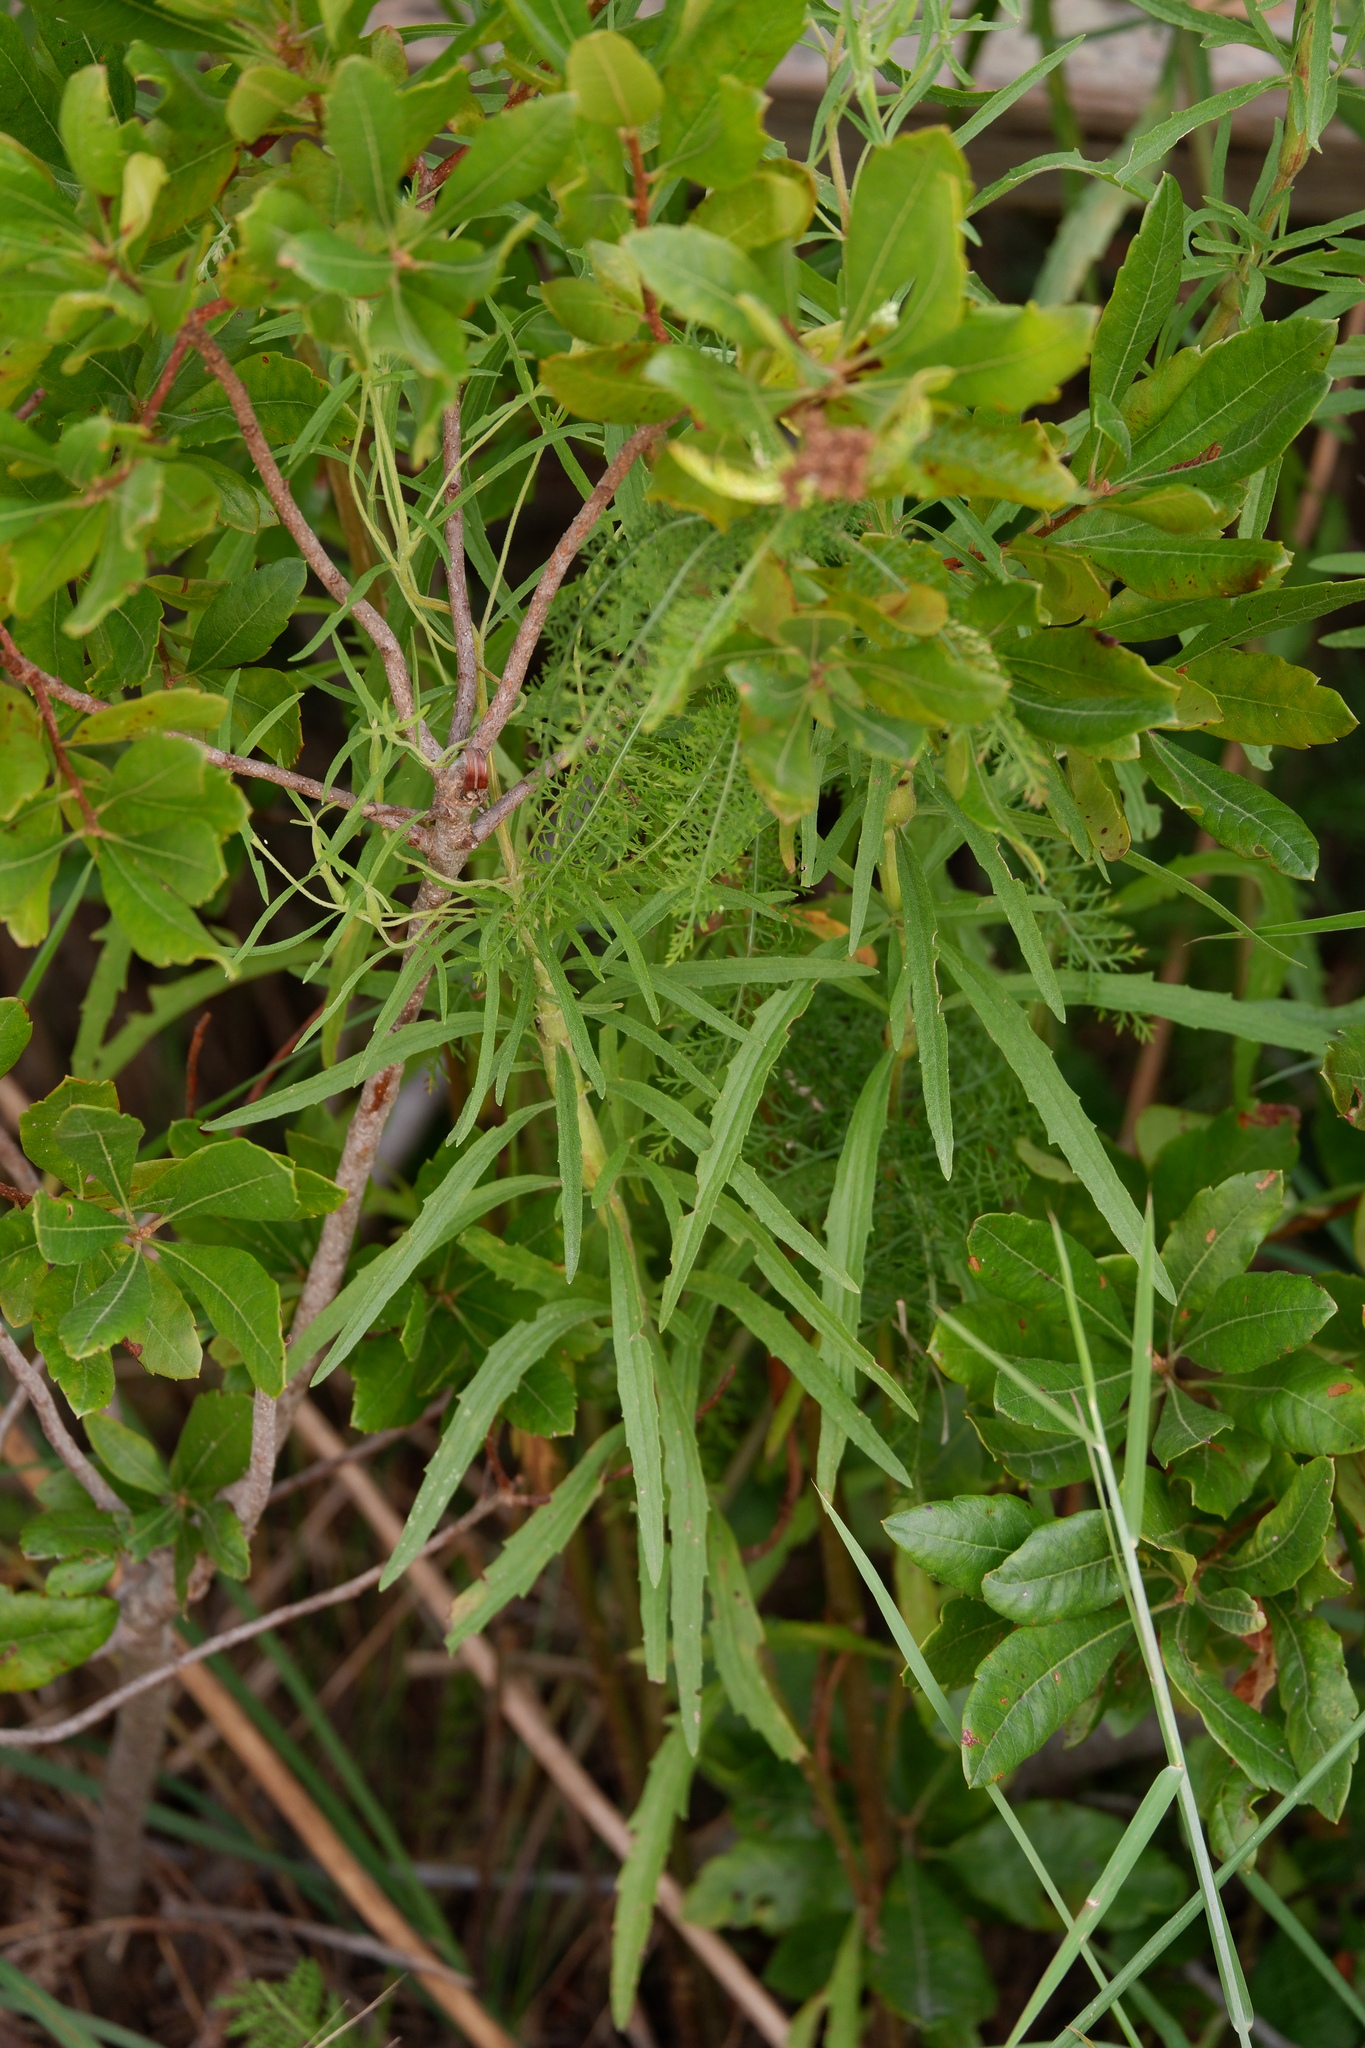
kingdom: Plantae
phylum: Tracheophyta
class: Magnoliopsida
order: Asterales
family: Asteraceae
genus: Eupatorium
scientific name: Eupatorium torreyanum
